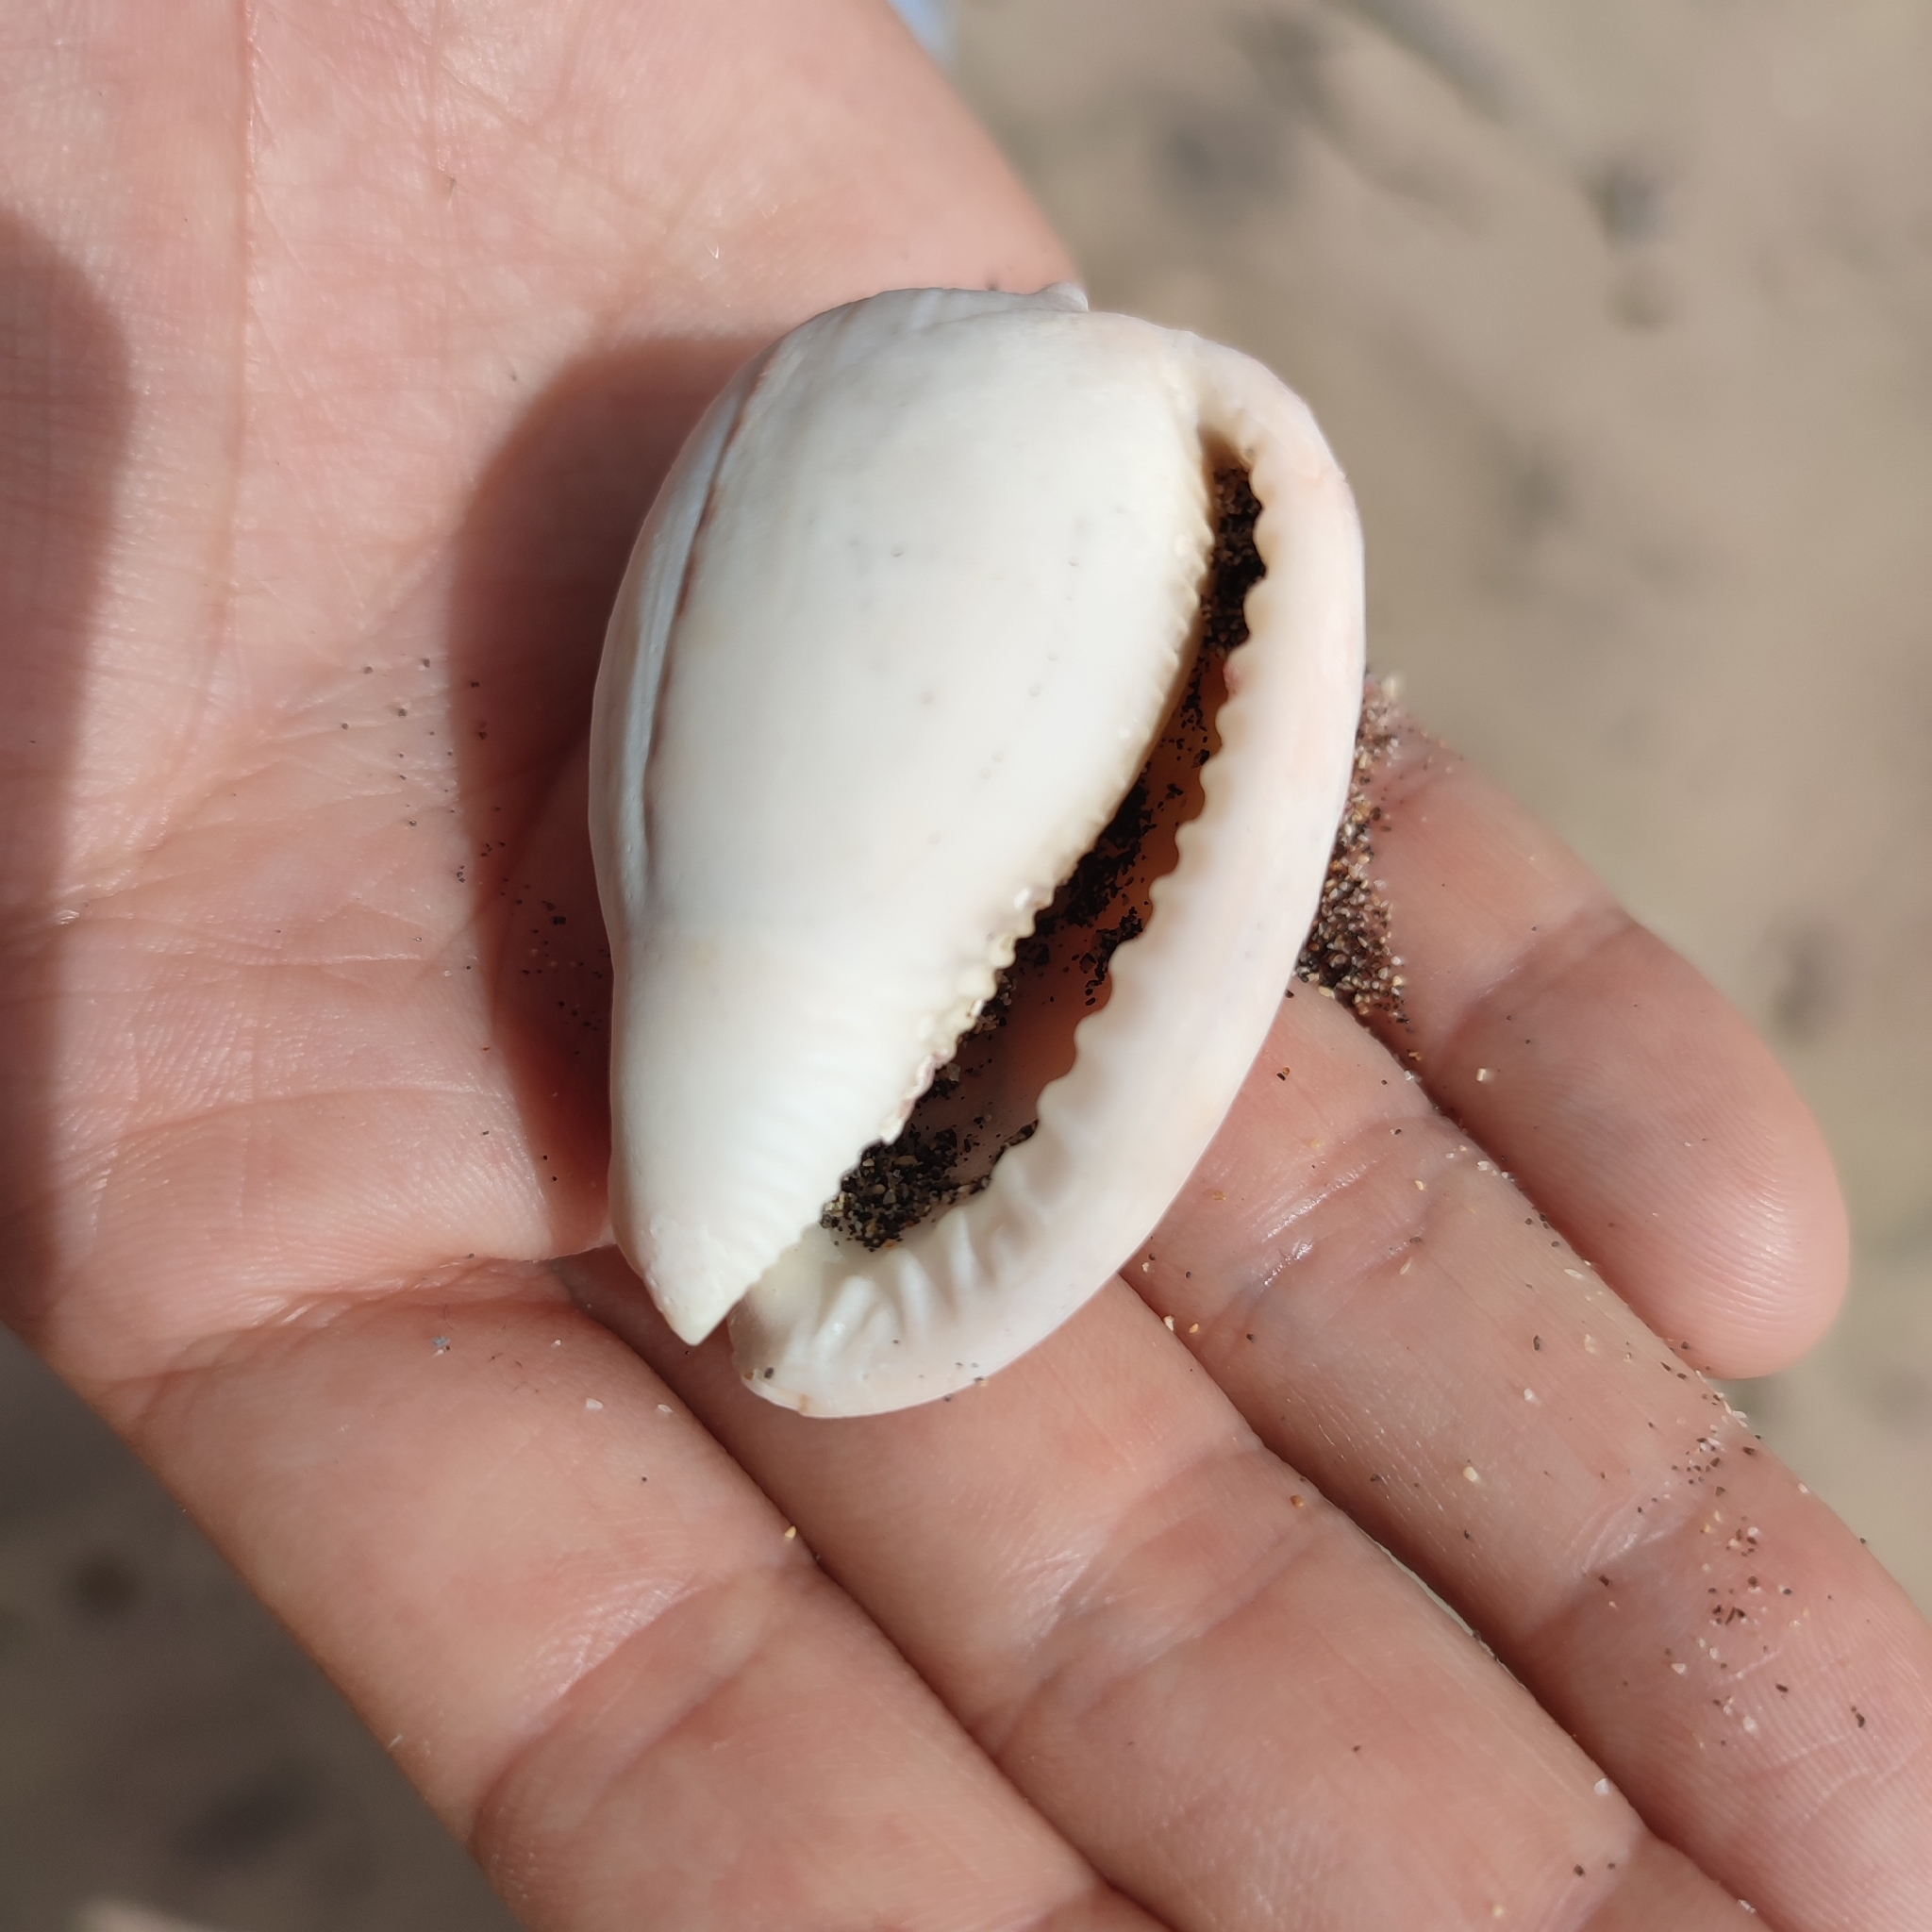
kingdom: Animalia
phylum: Mollusca
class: Gastropoda
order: Littorinimorpha
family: Cassidae
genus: Cypraecassis
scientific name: Cypraecassis testiculus
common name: Reticulate cowrie-helmet
